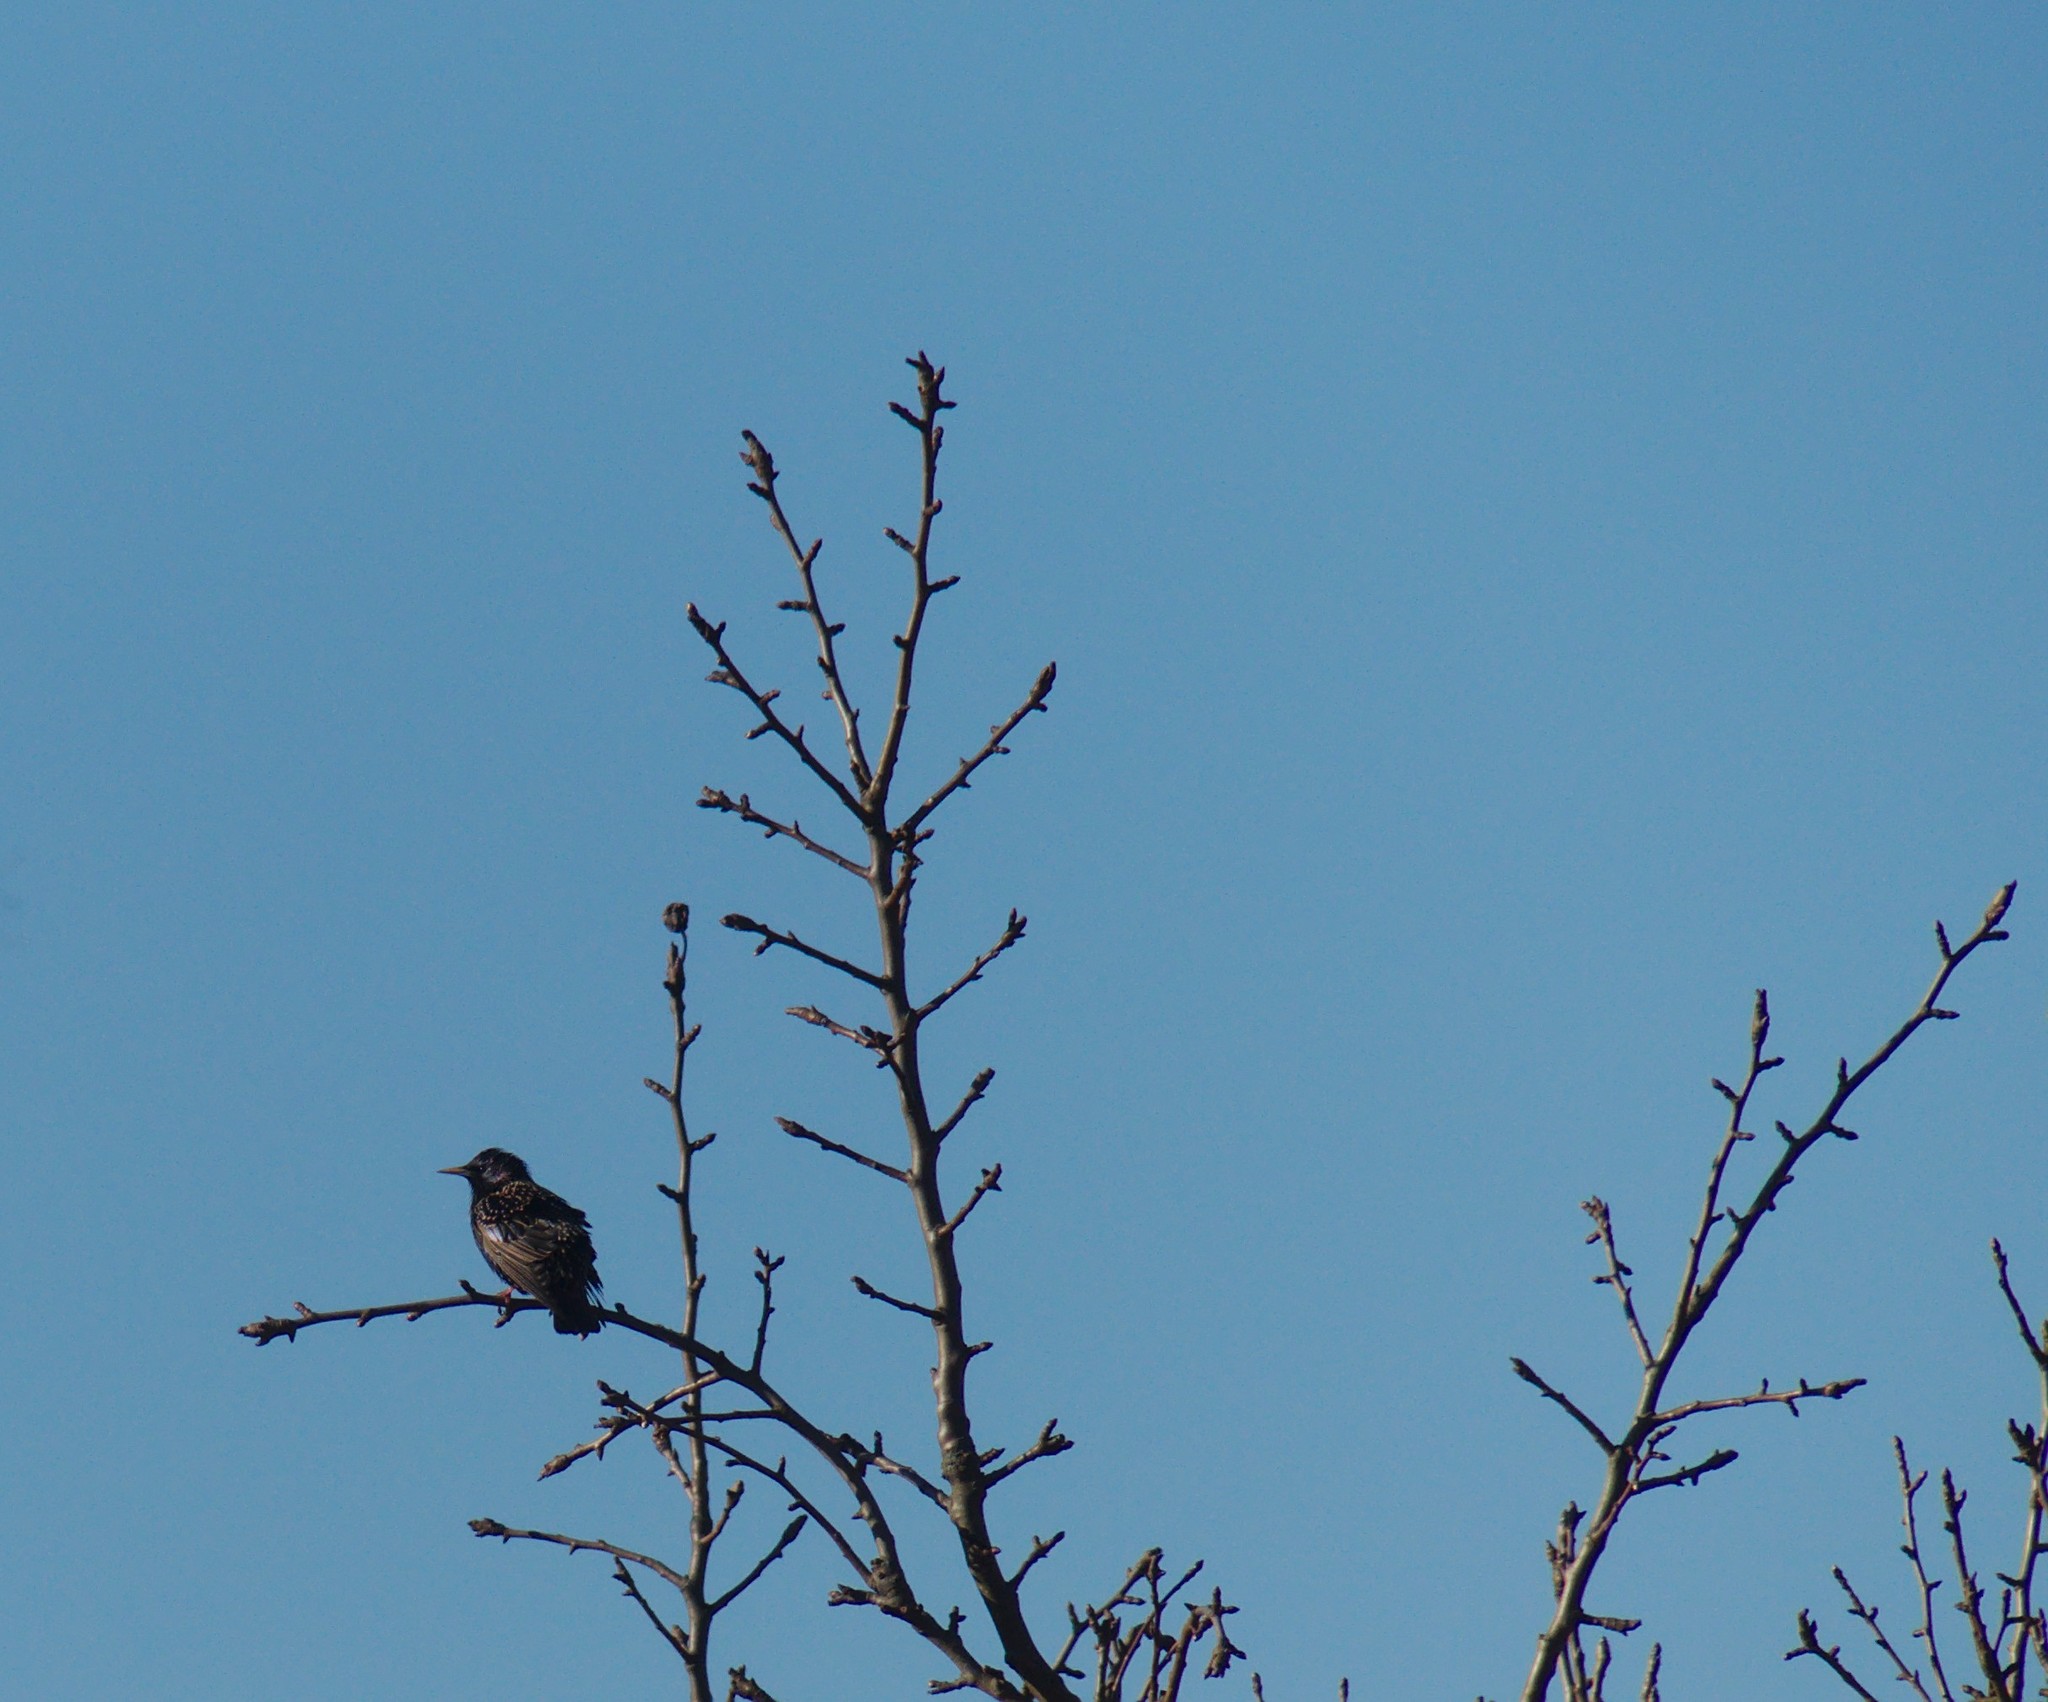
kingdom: Animalia
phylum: Chordata
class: Aves
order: Passeriformes
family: Sturnidae
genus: Sturnus
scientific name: Sturnus vulgaris
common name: Common starling
